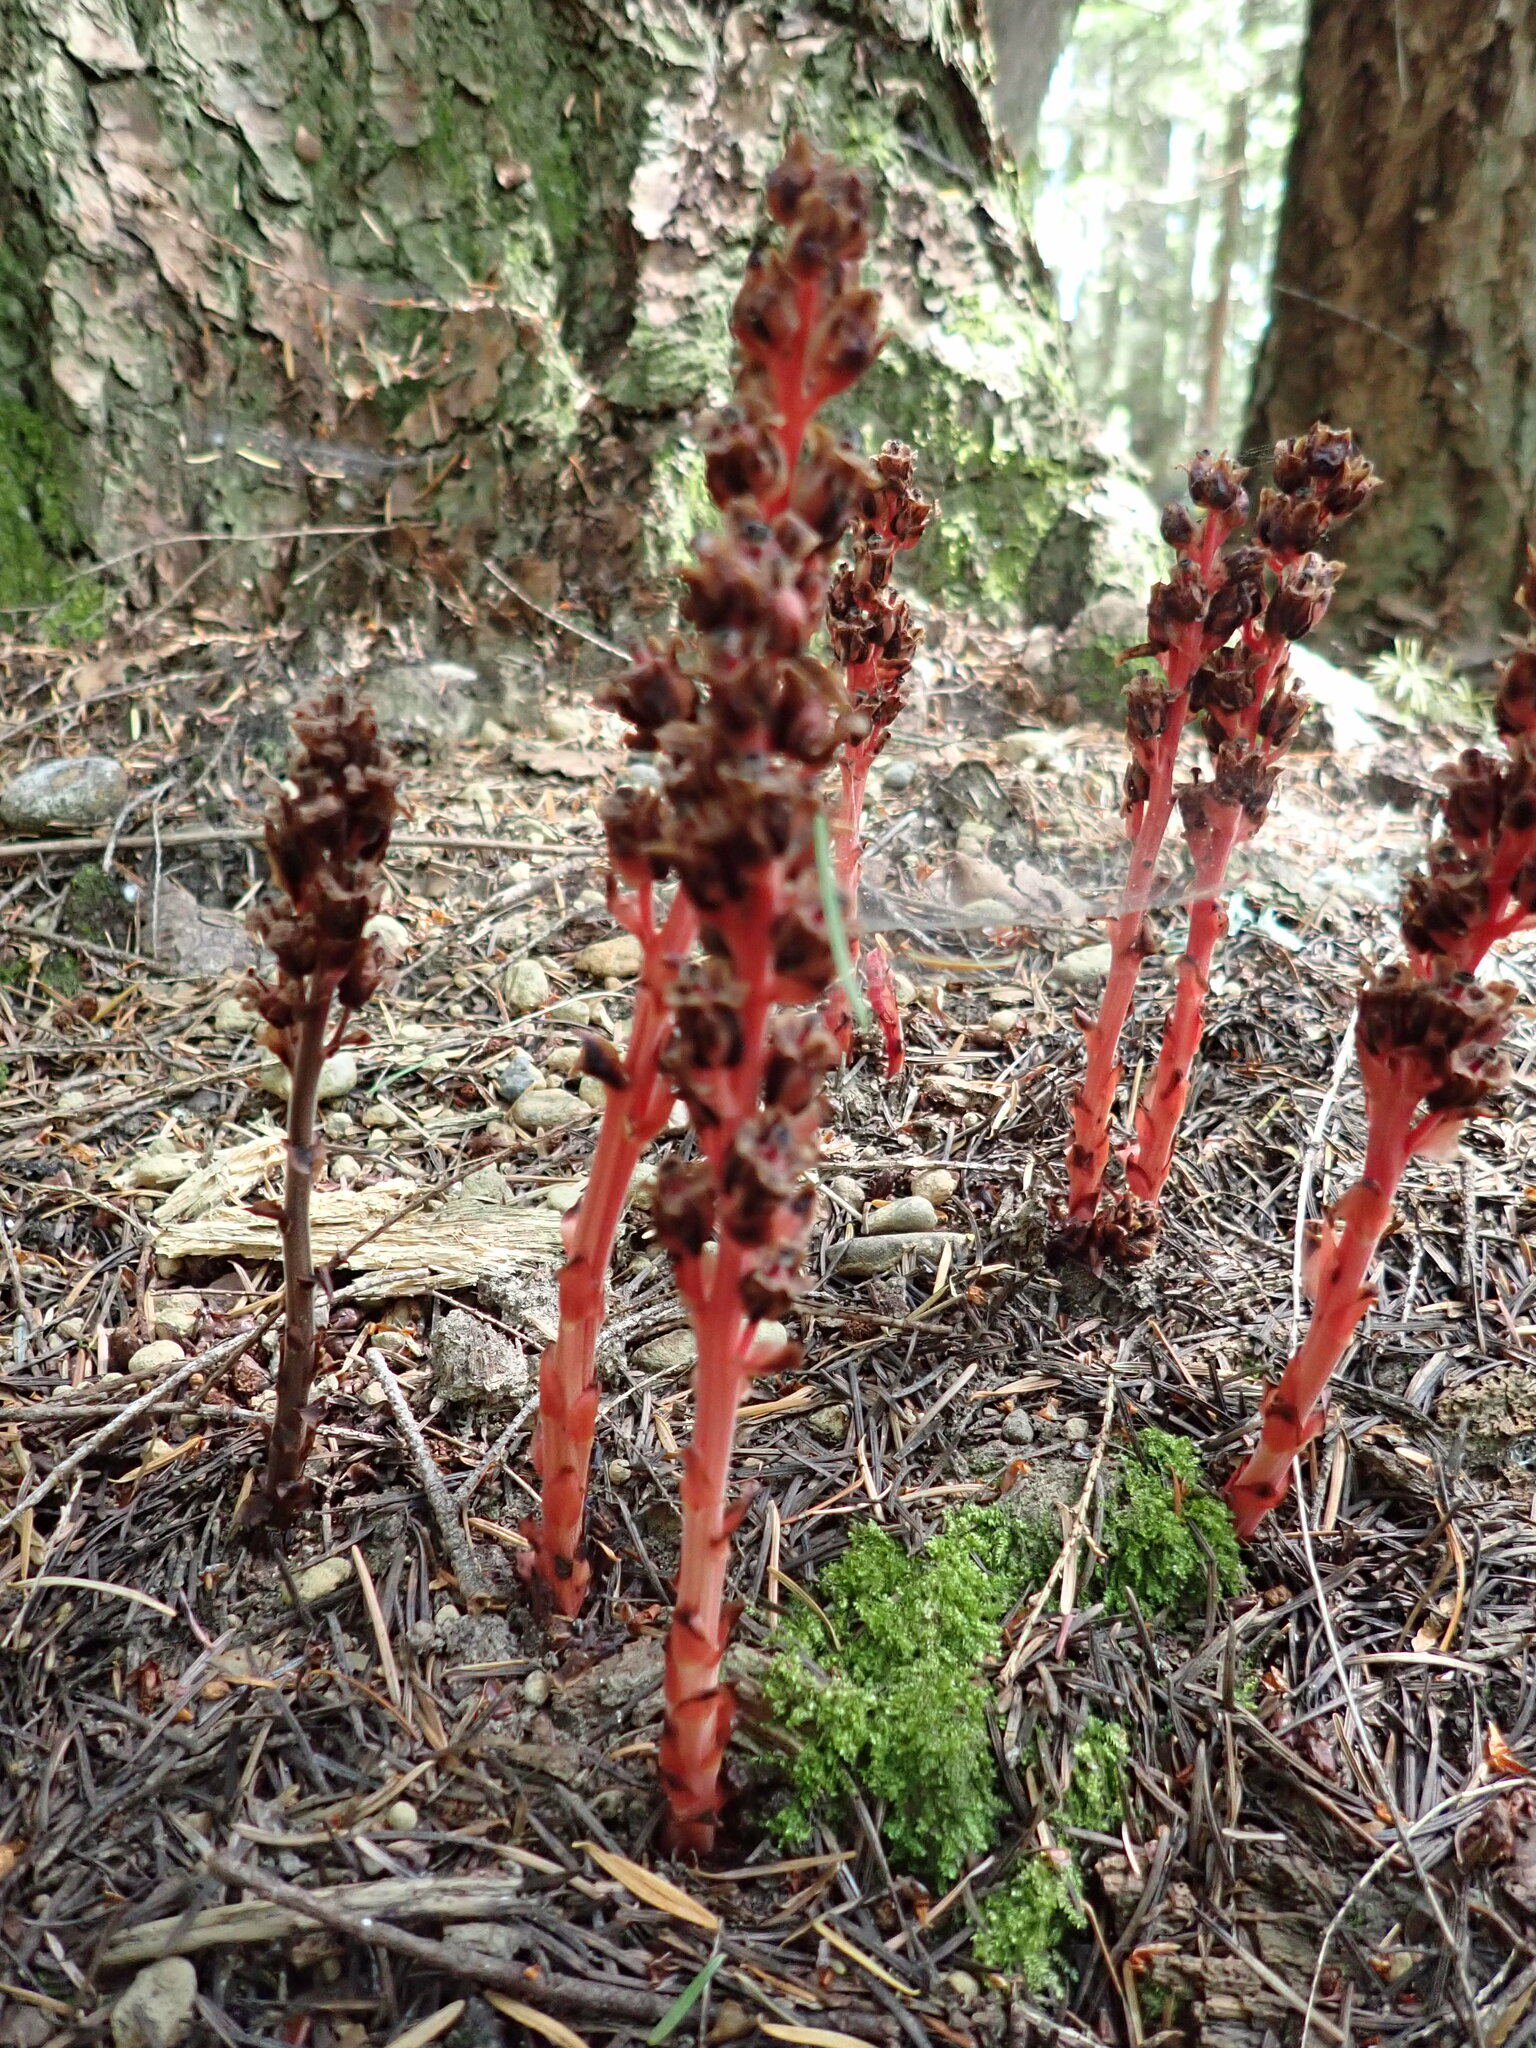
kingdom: Plantae
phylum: Tracheophyta
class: Magnoliopsida
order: Ericales
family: Ericaceae
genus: Hypopitys
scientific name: Hypopitys monotropa
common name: Yellow bird's-nest
